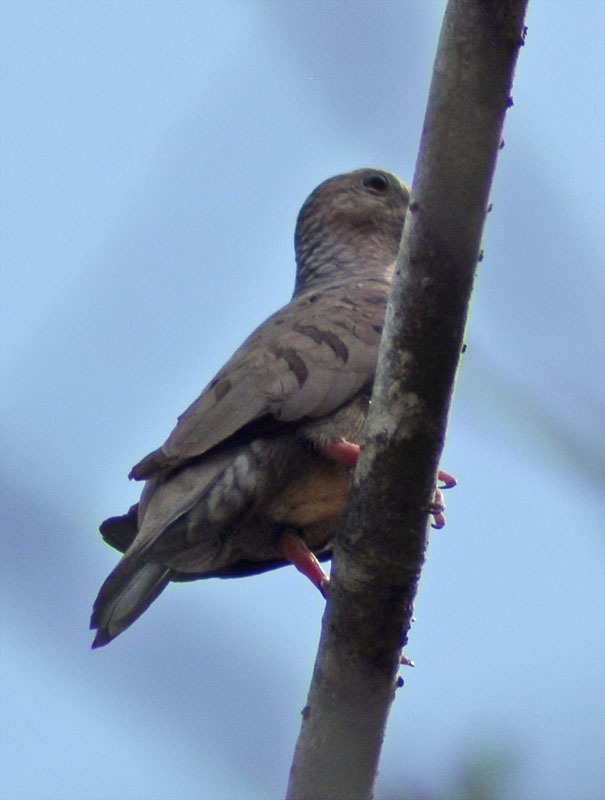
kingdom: Animalia
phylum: Chordata
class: Aves
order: Columbiformes
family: Columbidae
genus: Columbina
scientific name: Columbina passerina
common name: Common ground-dove
